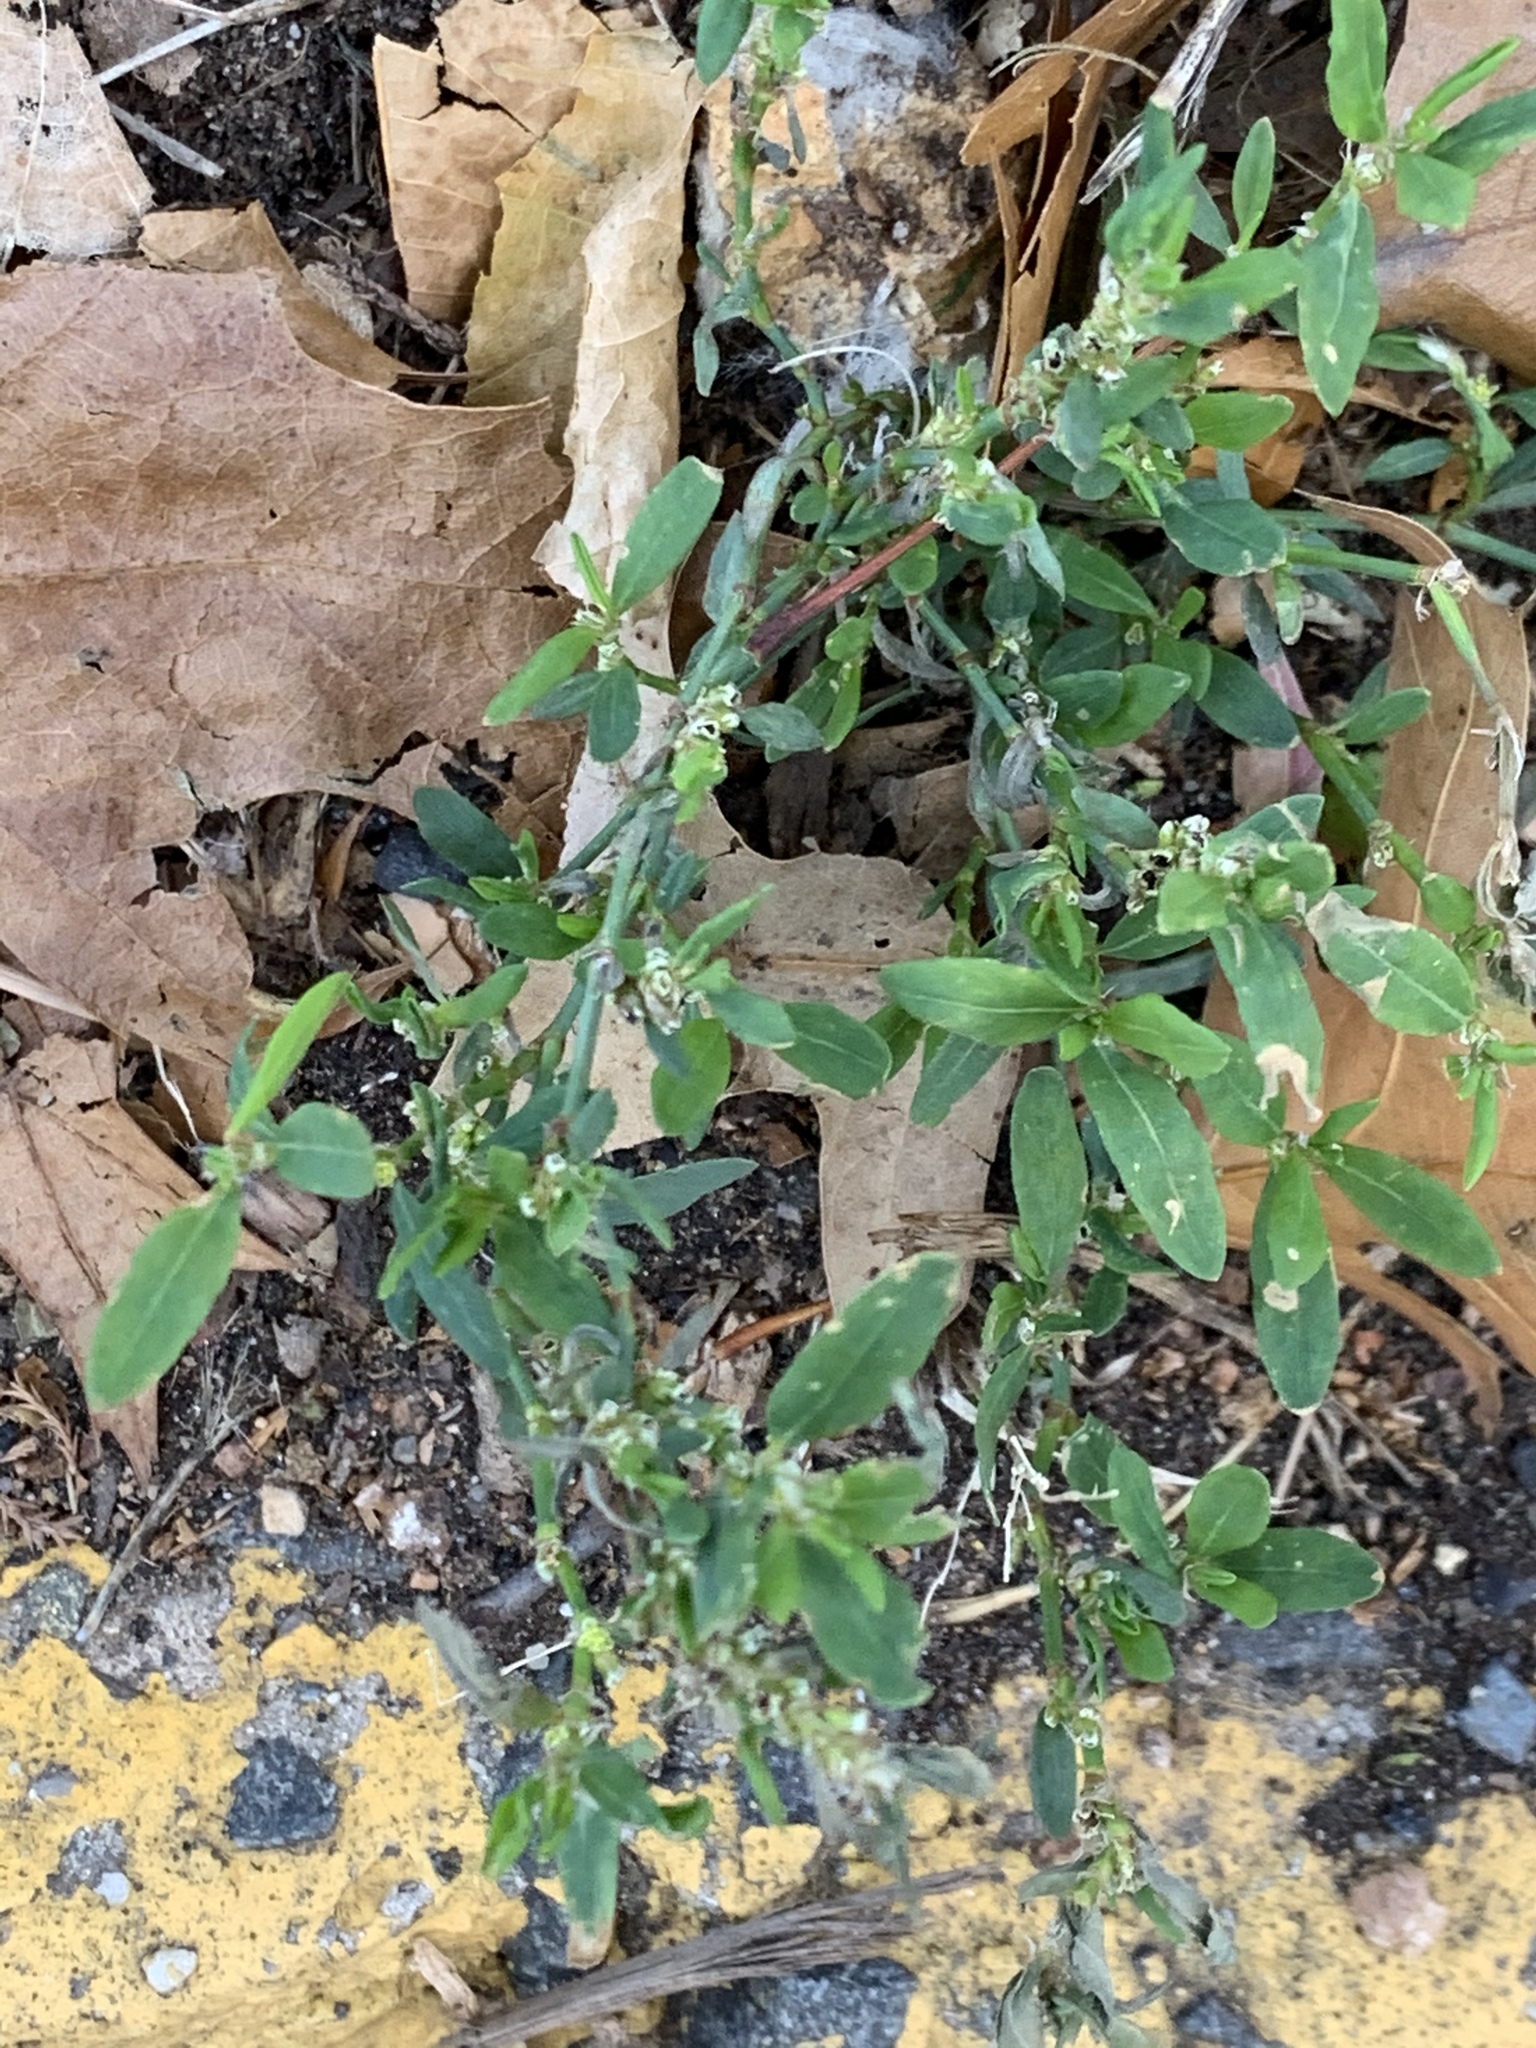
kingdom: Plantae
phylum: Tracheophyta
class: Magnoliopsida
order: Caryophyllales
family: Polygonaceae
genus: Polygonum
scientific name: Polygonum aviculare
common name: Prostrate knotweed
